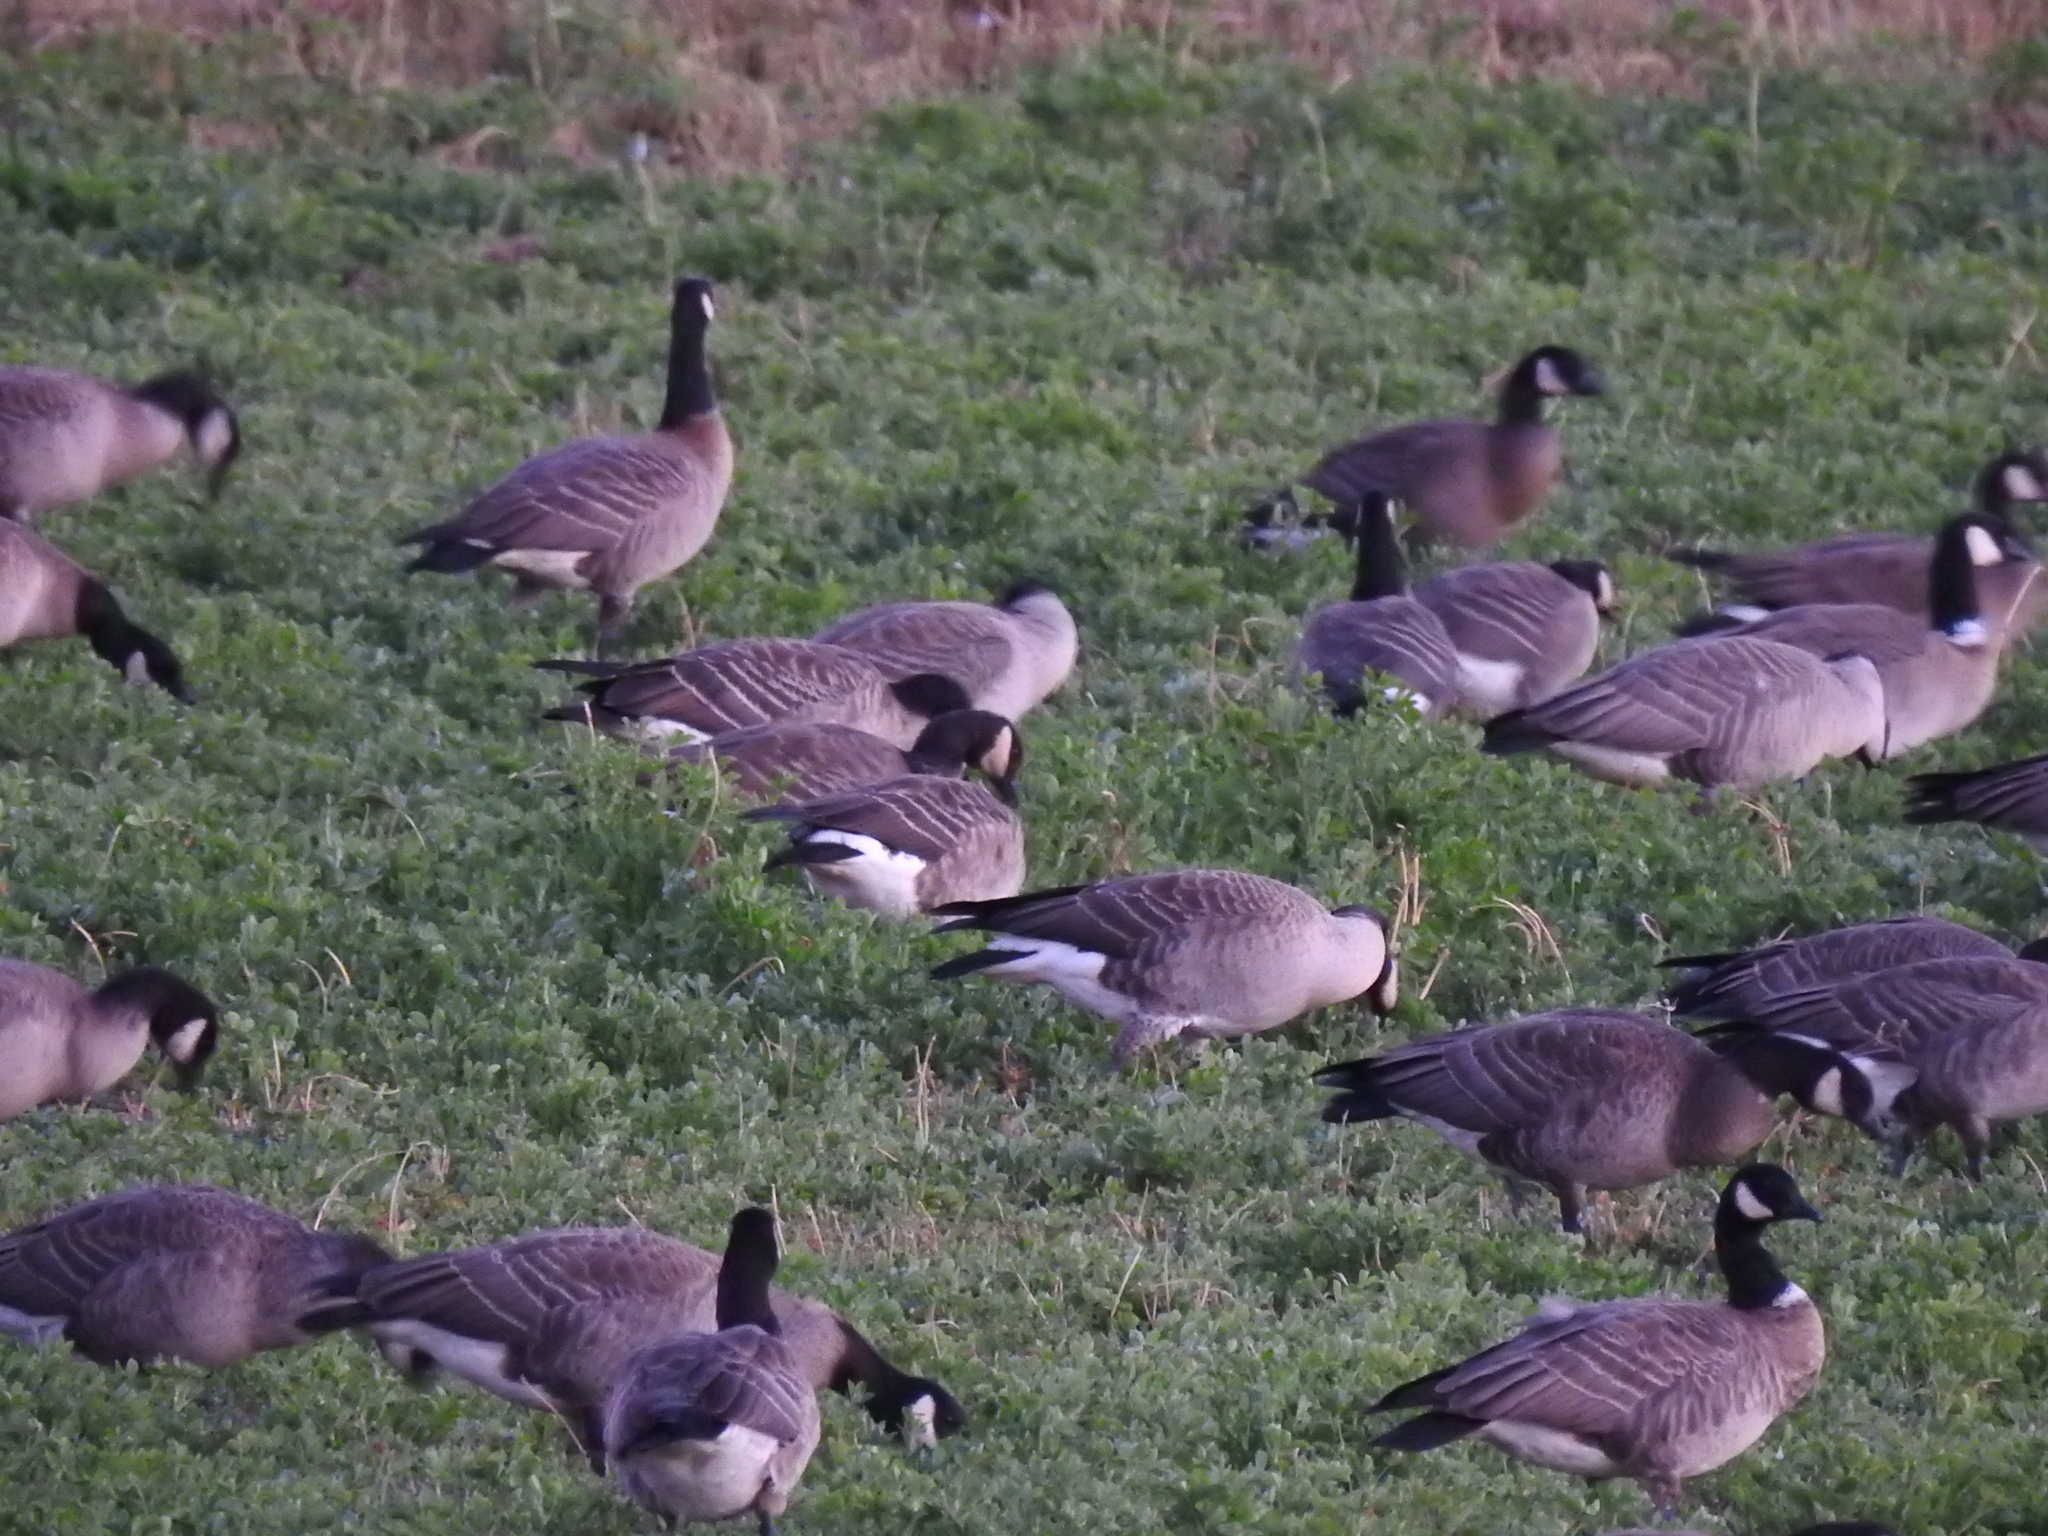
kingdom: Animalia
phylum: Chordata
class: Aves
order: Anseriformes
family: Anatidae
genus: Branta
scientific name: Branta hutchinsii
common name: Cackling goose
